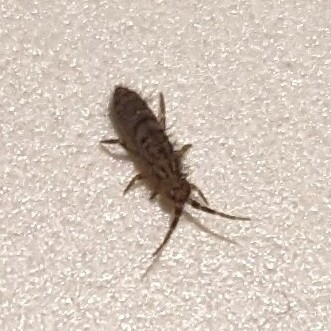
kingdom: Animalia
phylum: Arthropoda
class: Collembola
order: Entomobryomorpha
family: Orchesellidae
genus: Orchesella
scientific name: Orchesella villosa
